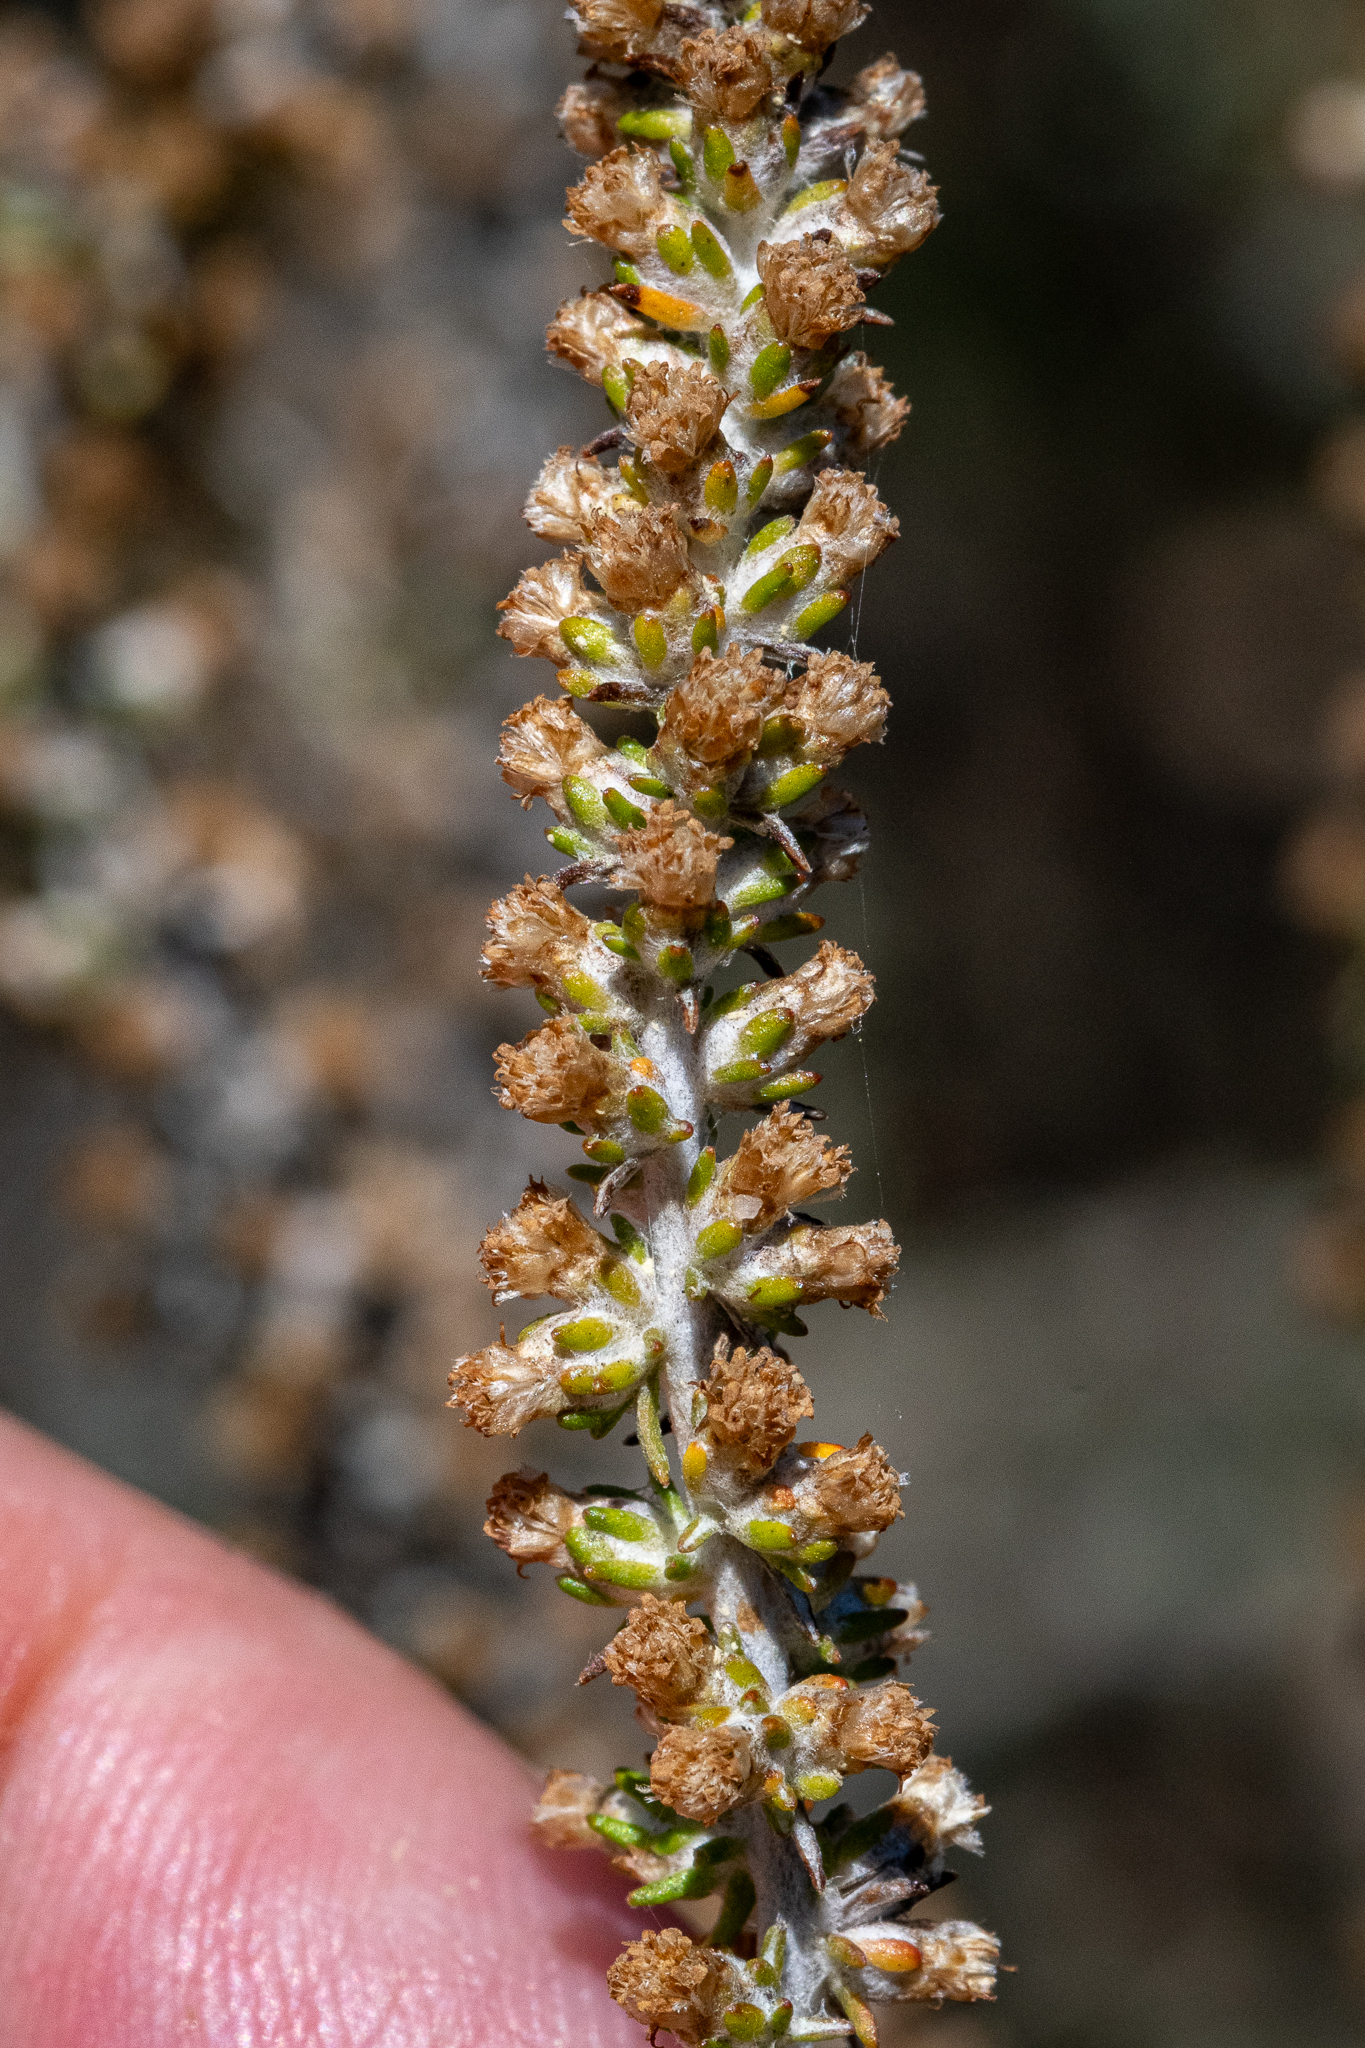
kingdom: Plantae
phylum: Tracheophyta
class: Magnoliopsida
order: Asterales
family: Asteraceae
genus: Ifloga
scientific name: Ifloga ambigua
